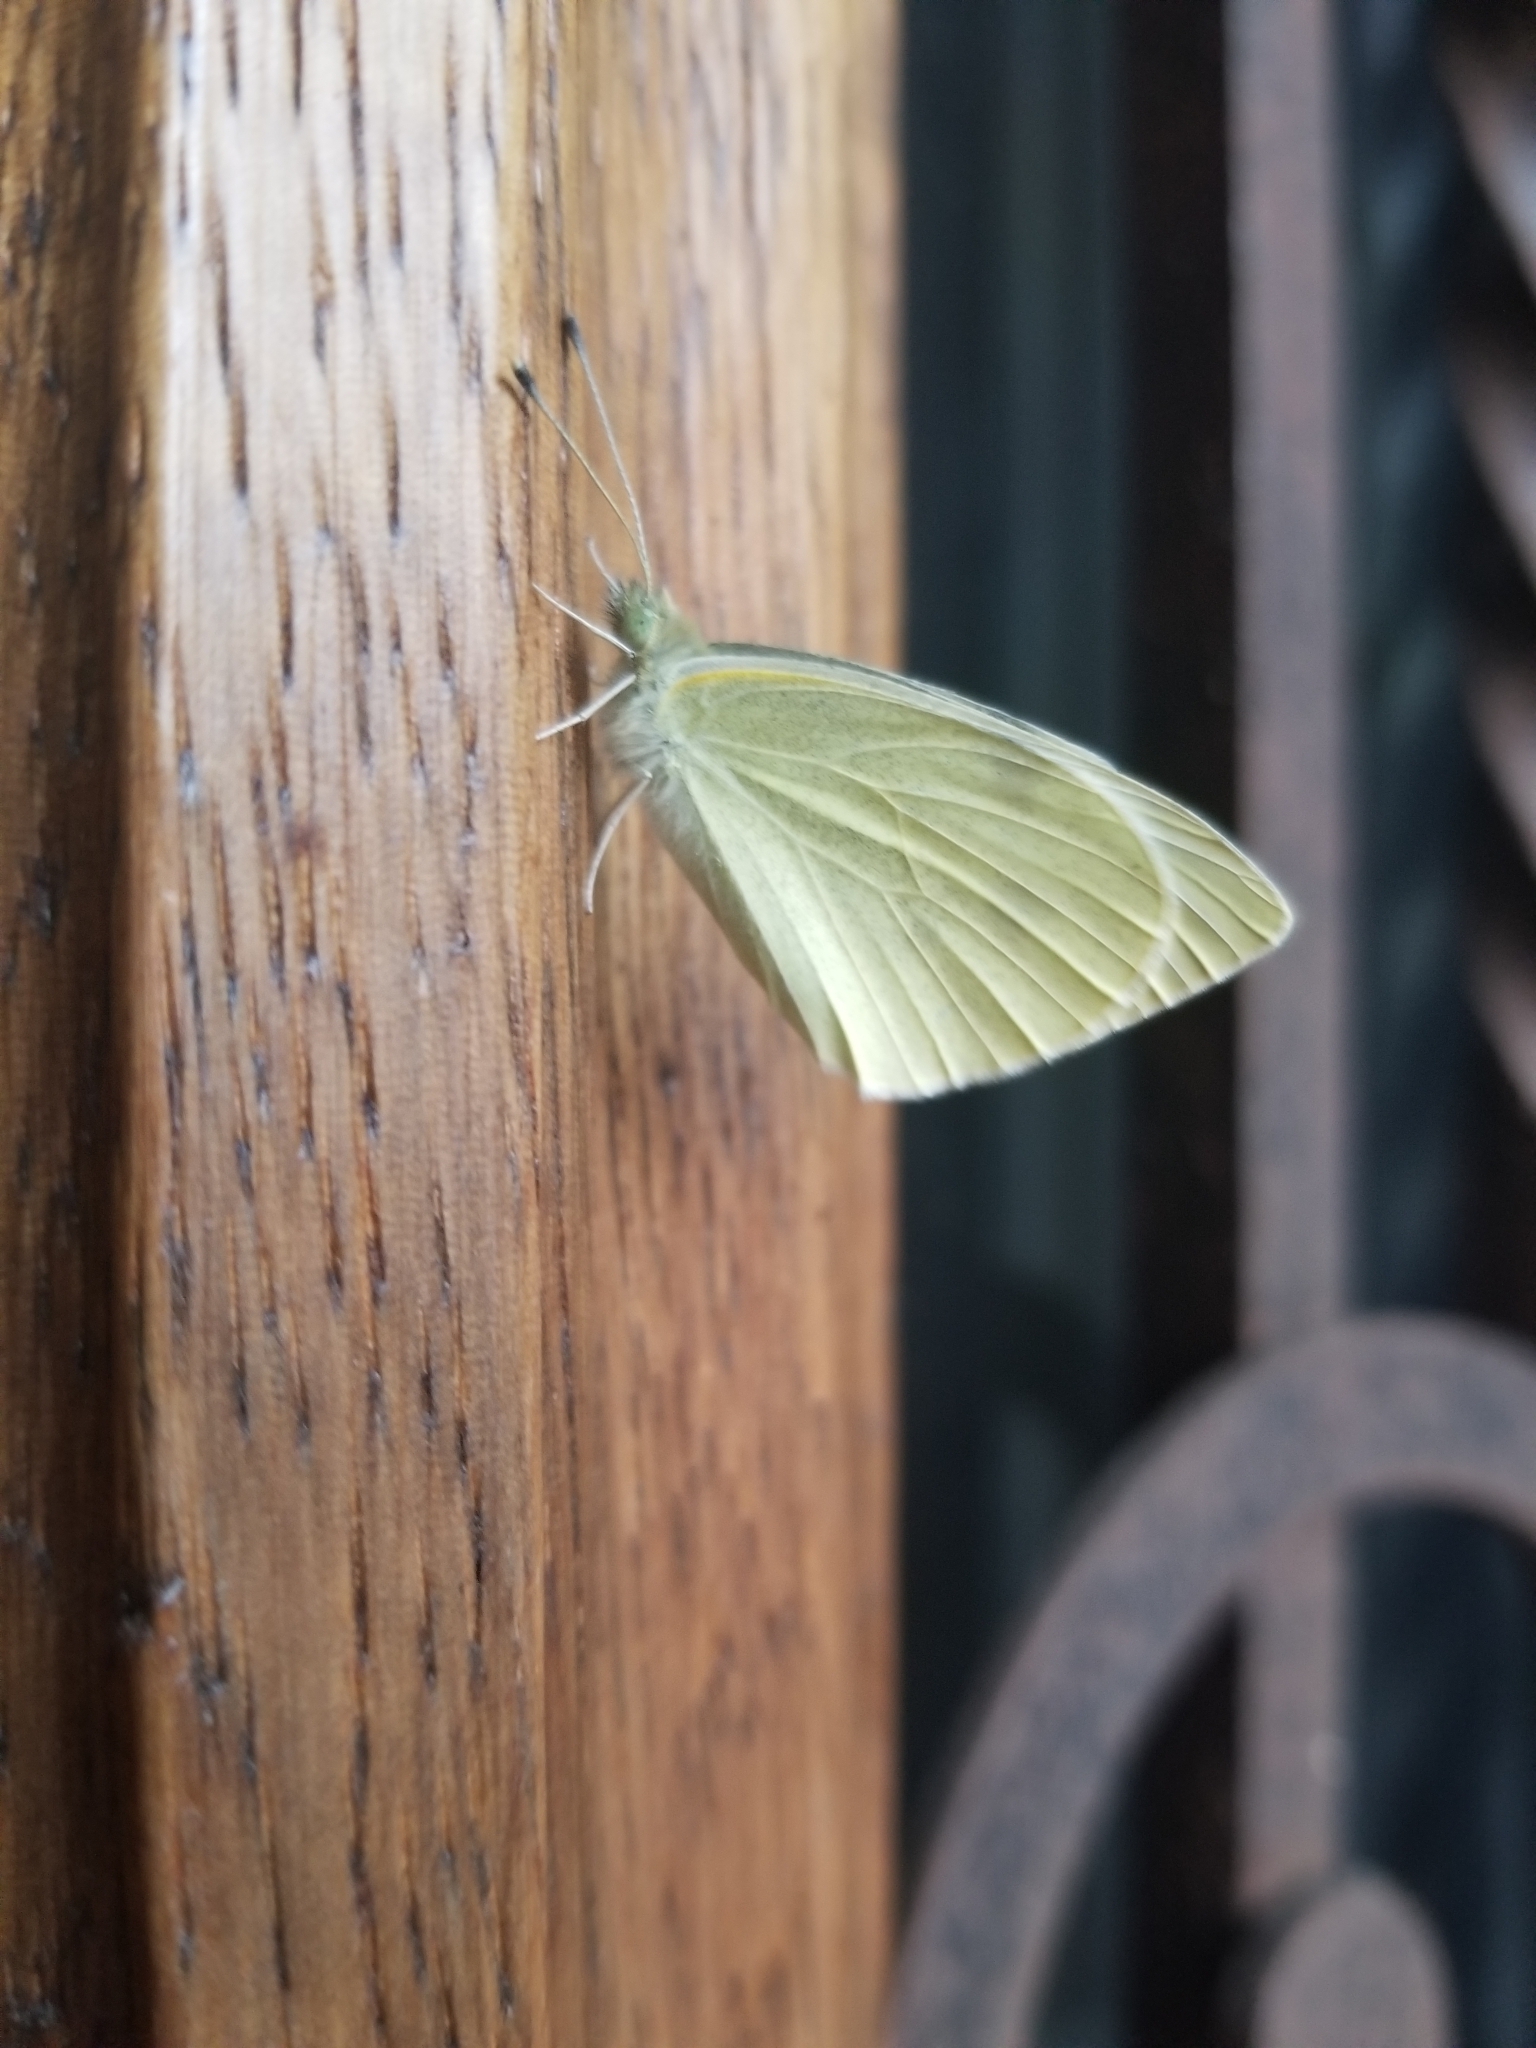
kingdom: Animalia
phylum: Arthropoda
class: Insecta
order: Lepidoptera
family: Pieridae
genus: Pieris
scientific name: Pieris rapae
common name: Small white
